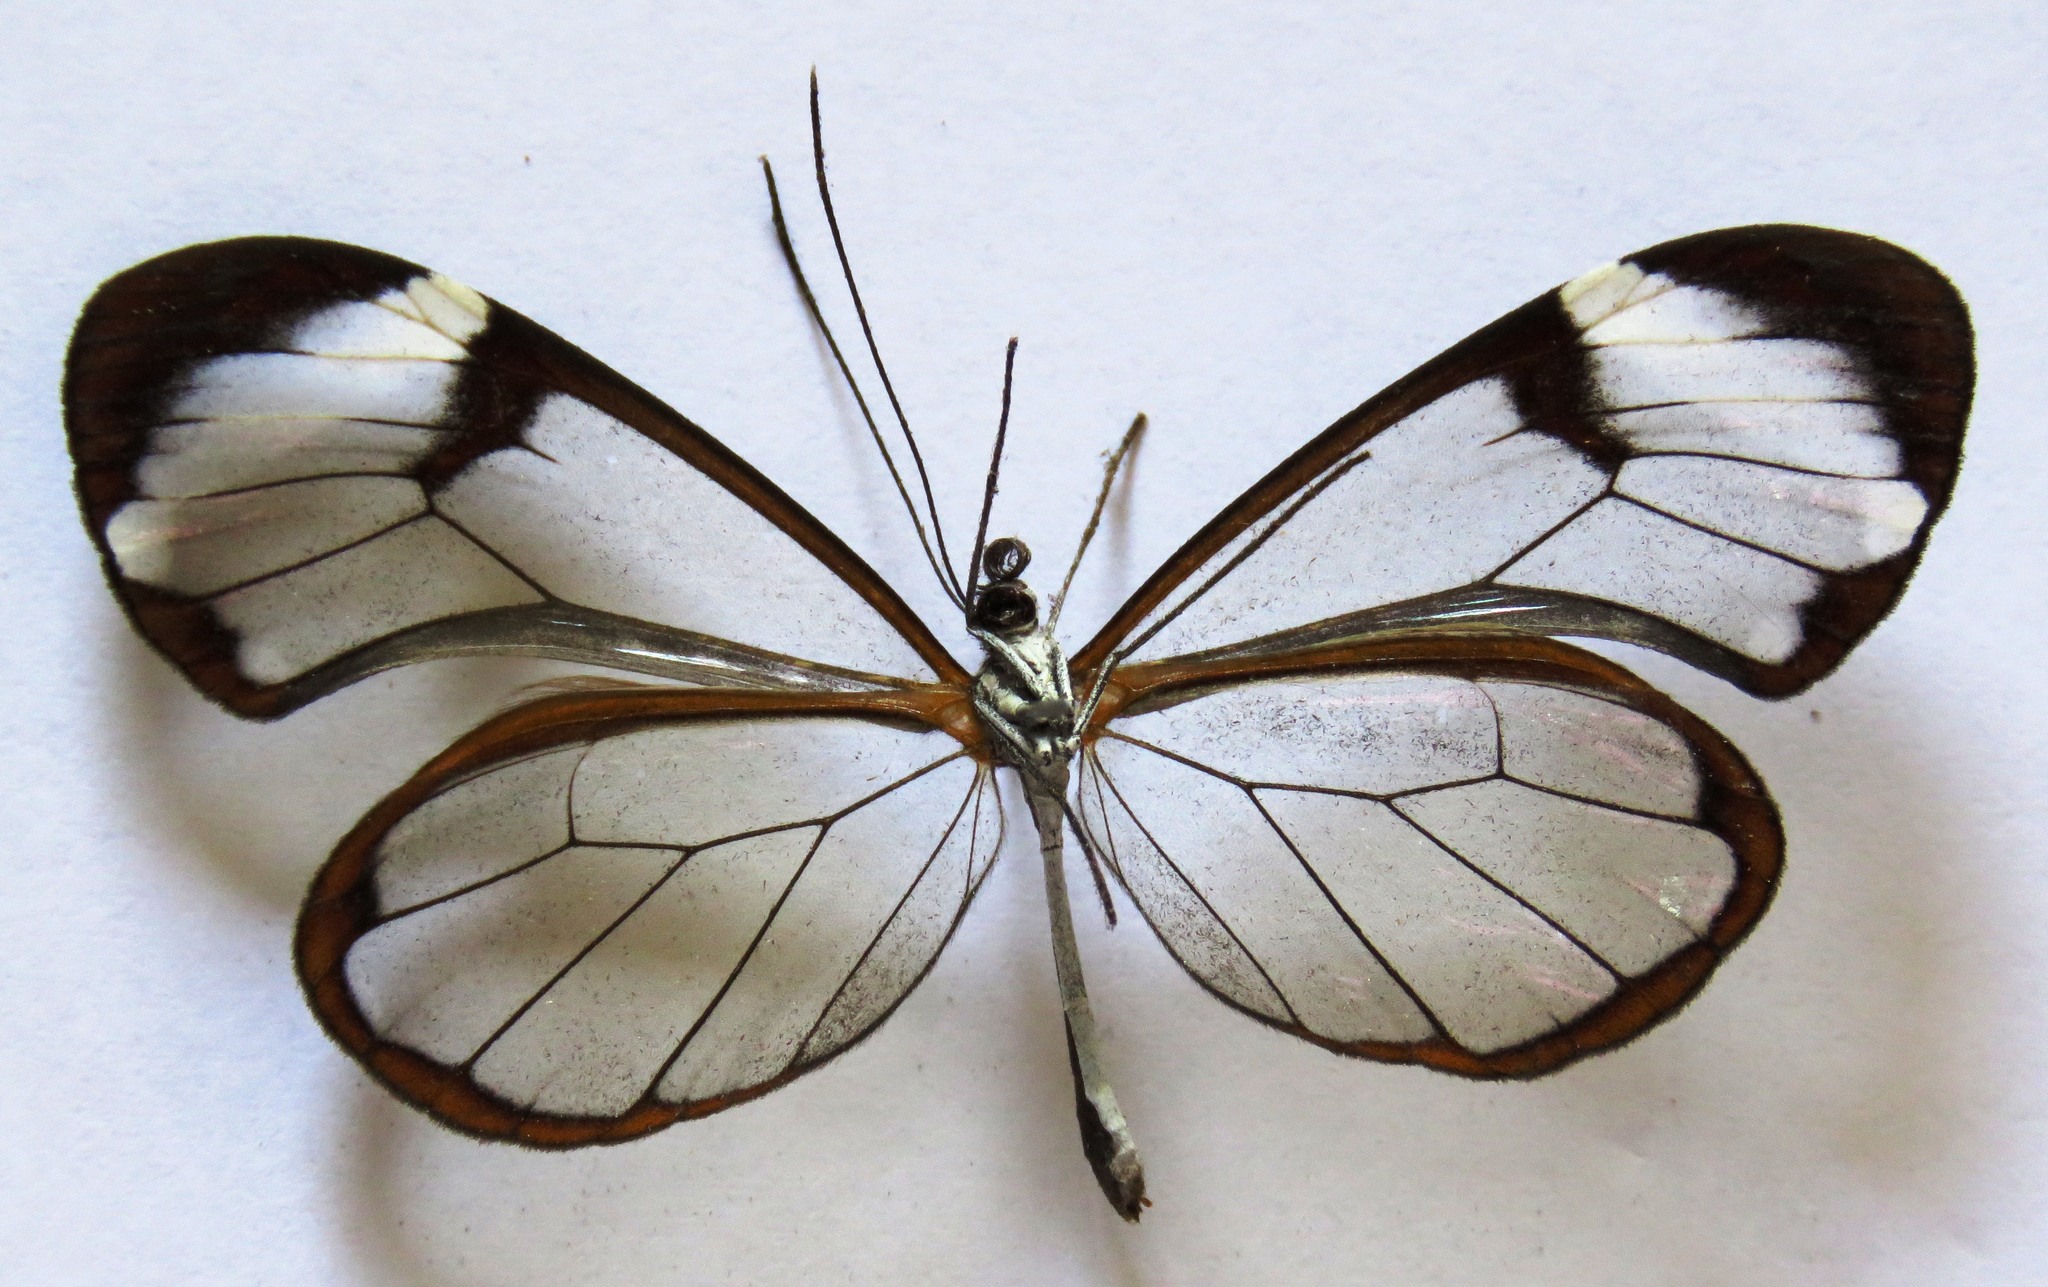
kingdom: Animalia
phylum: Arthropoda
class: Insecta
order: Lepidoptera
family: Nymphalidae
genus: Greta
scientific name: Greta morgane
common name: Thick-tipped greta
